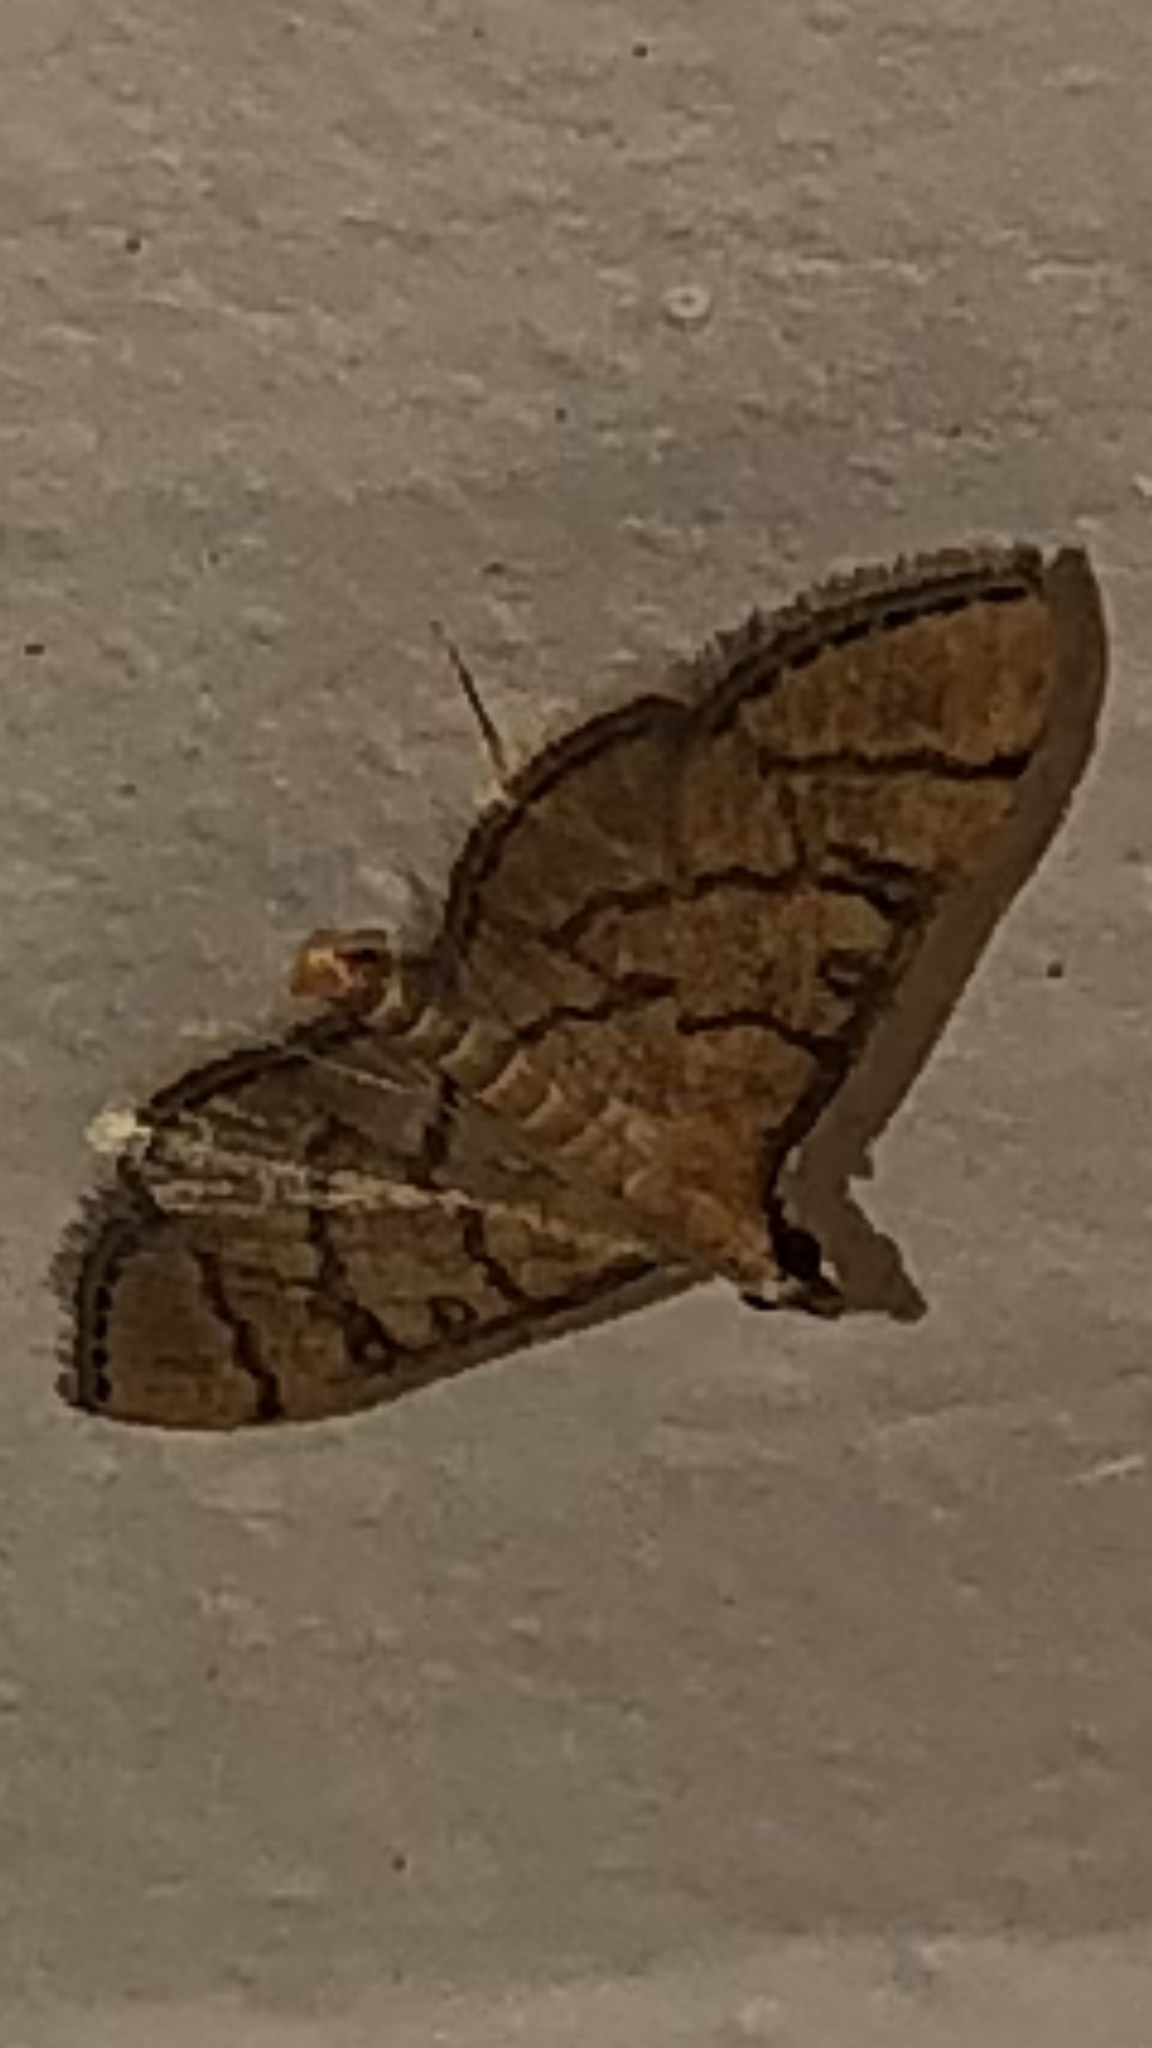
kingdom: Animalia
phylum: Arthropoda
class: Insecta
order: Lepidoptera
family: Crambidae
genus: Lamprosema
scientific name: Lamprosema Blepharomastix ranalis
